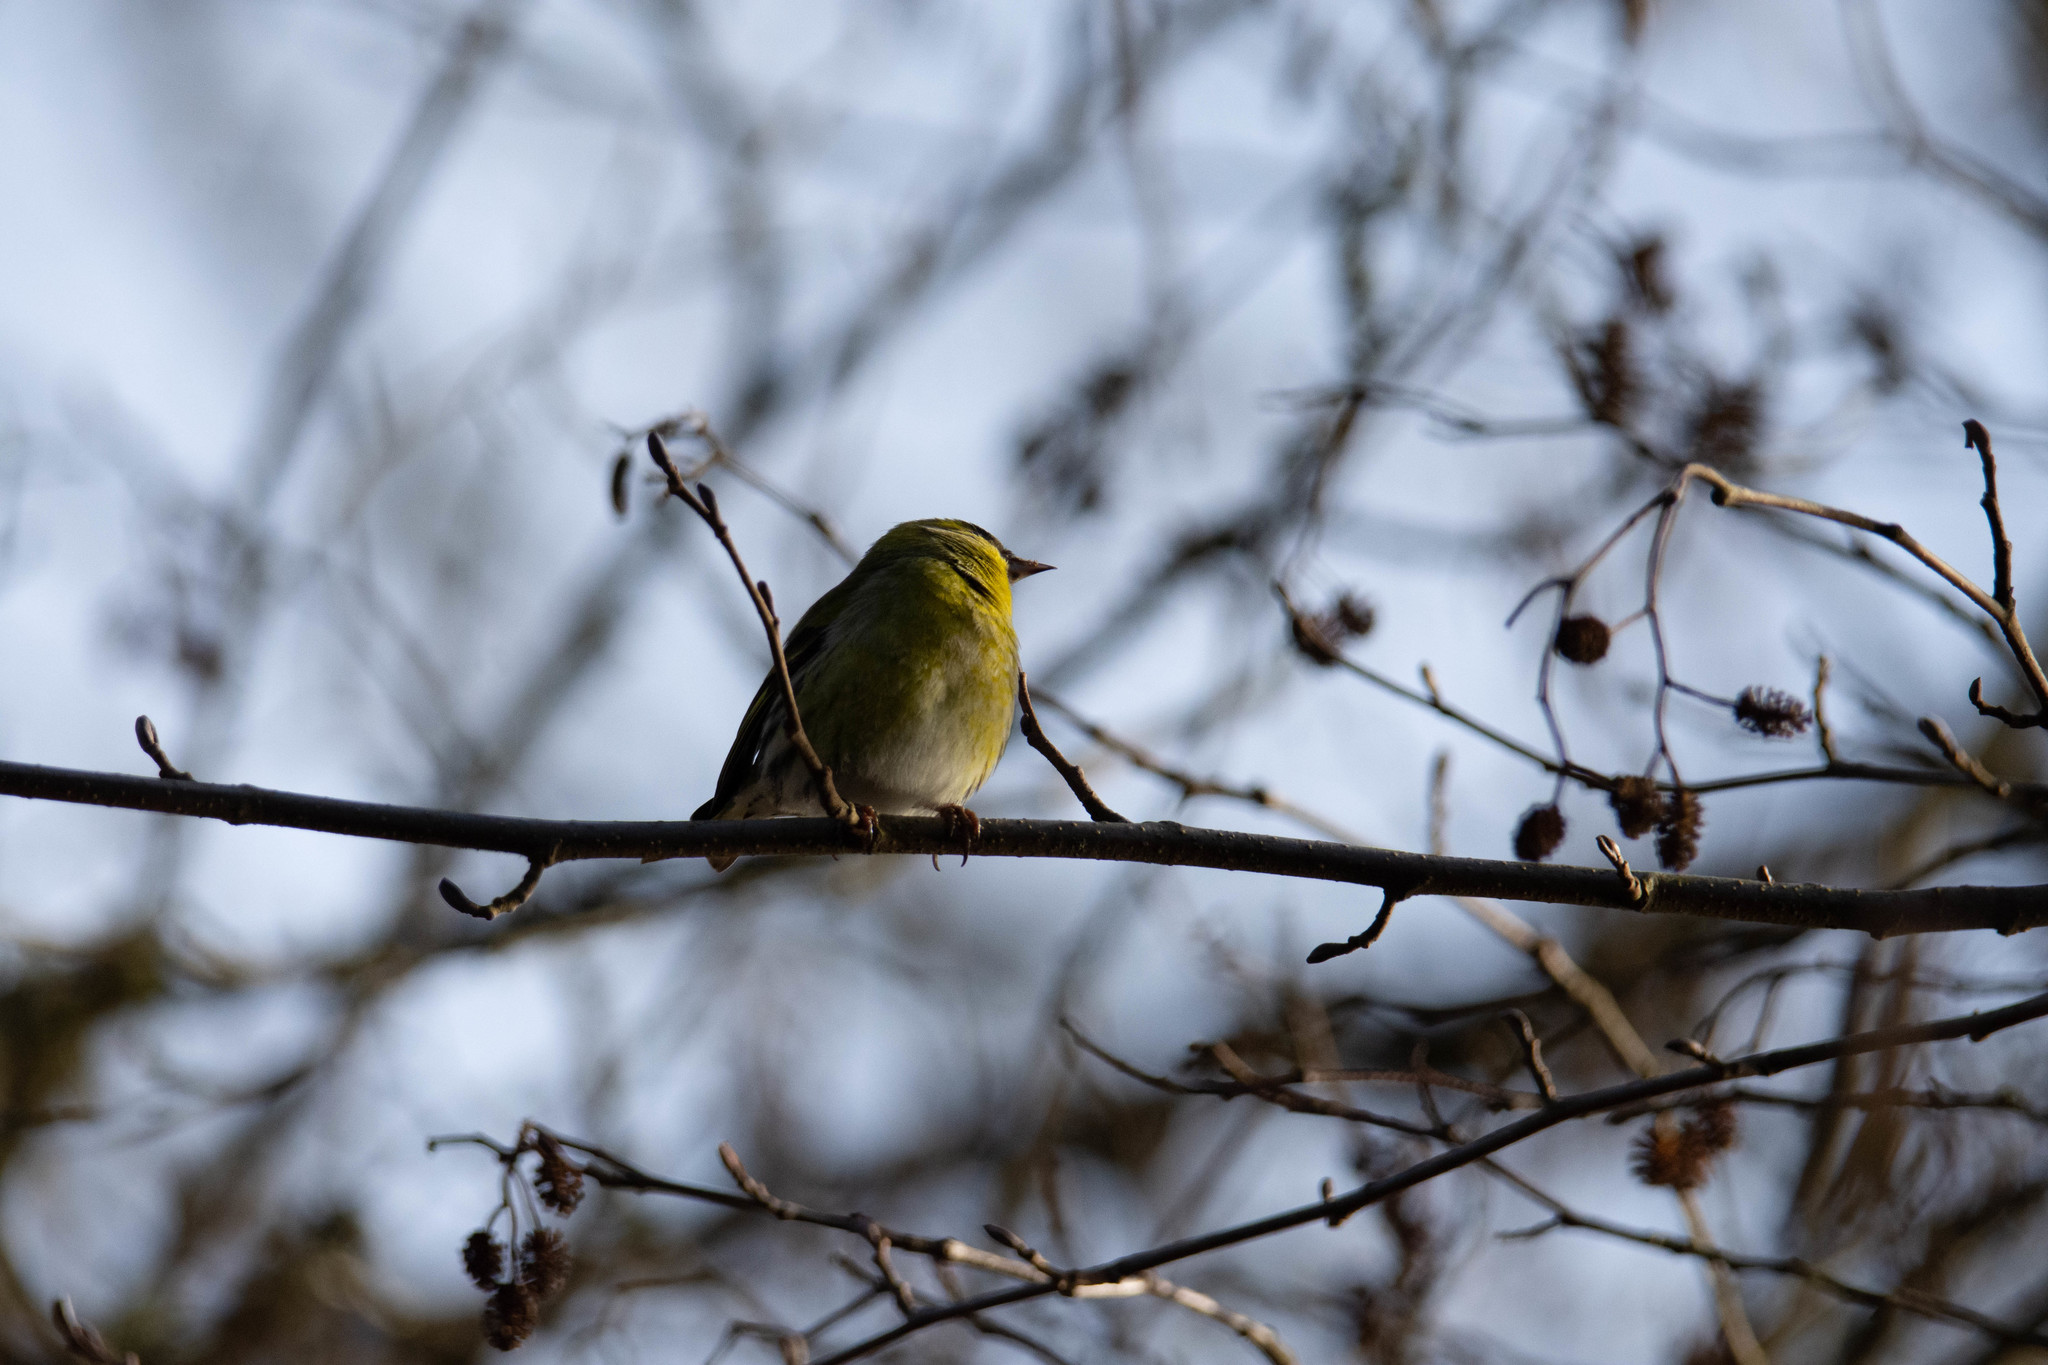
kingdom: Animalia
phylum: Chordata
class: Aves
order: Passeriformes
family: Fringillidae
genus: Spinus
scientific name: Spinus spinus
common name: Eurasian siskin
